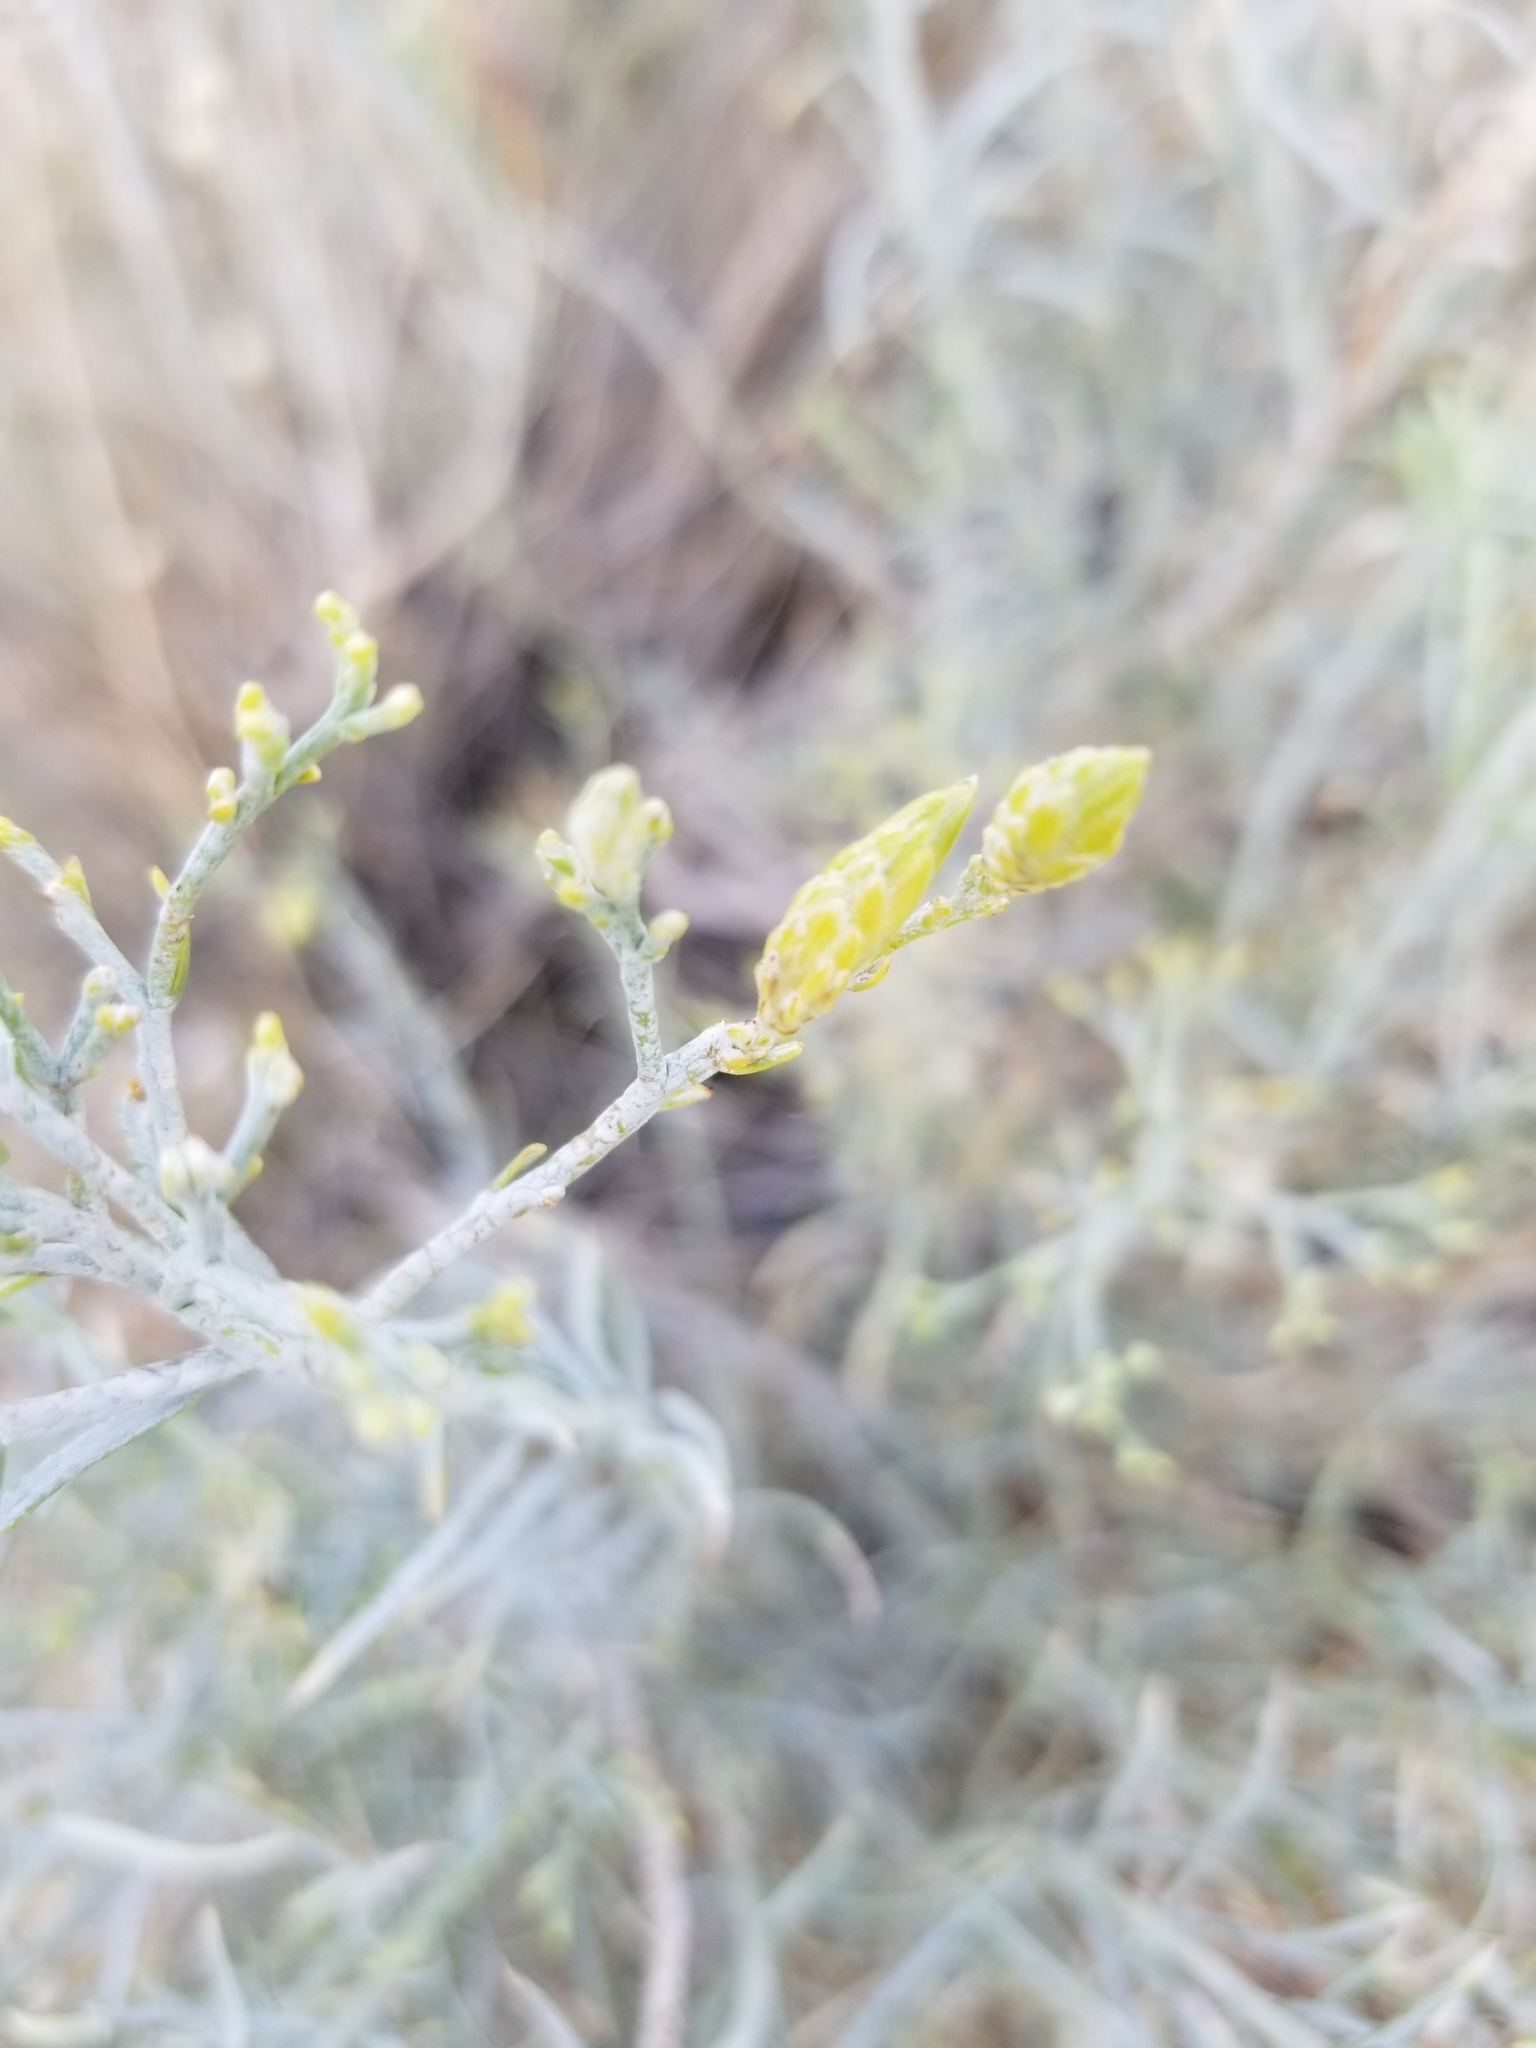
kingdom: Plantae
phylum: Tracheophyta
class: Magnoliopsida
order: Asterales
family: Asteraceae
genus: Ericameria
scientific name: Ericameria nauseosa
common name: Rubber rabbitbrush
